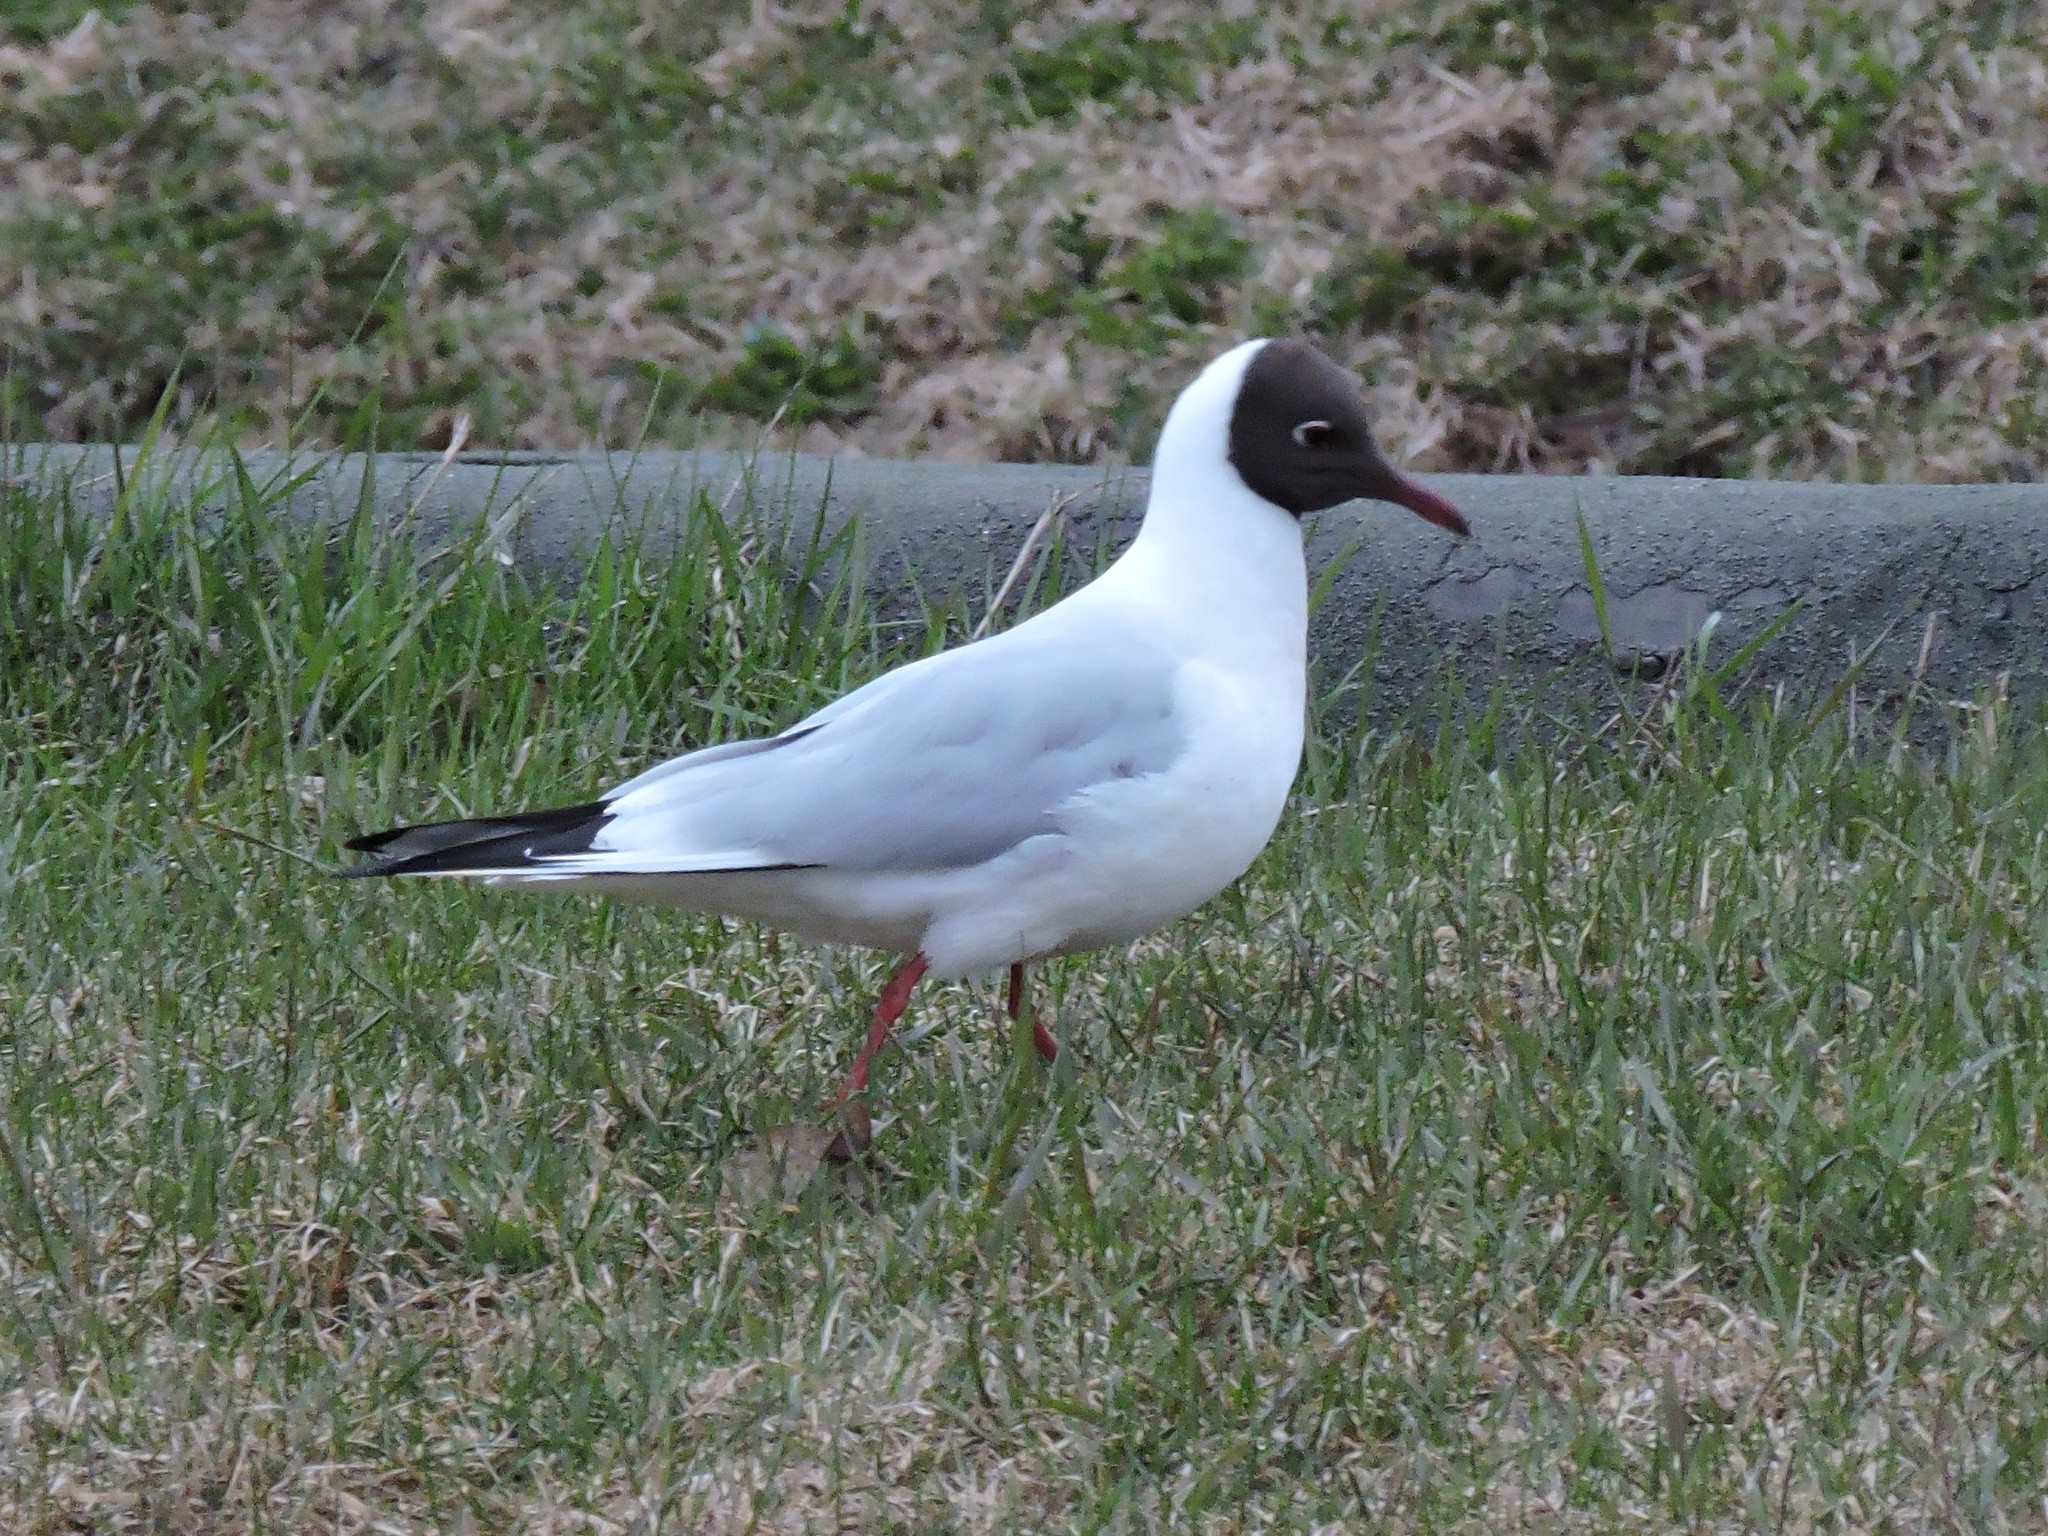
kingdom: Animalia
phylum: Chordata
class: Aves
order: Charadriiformes
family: Laridae
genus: Chroicocephalus
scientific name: Chroicocephalus ridibundus
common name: Black-headed gull
